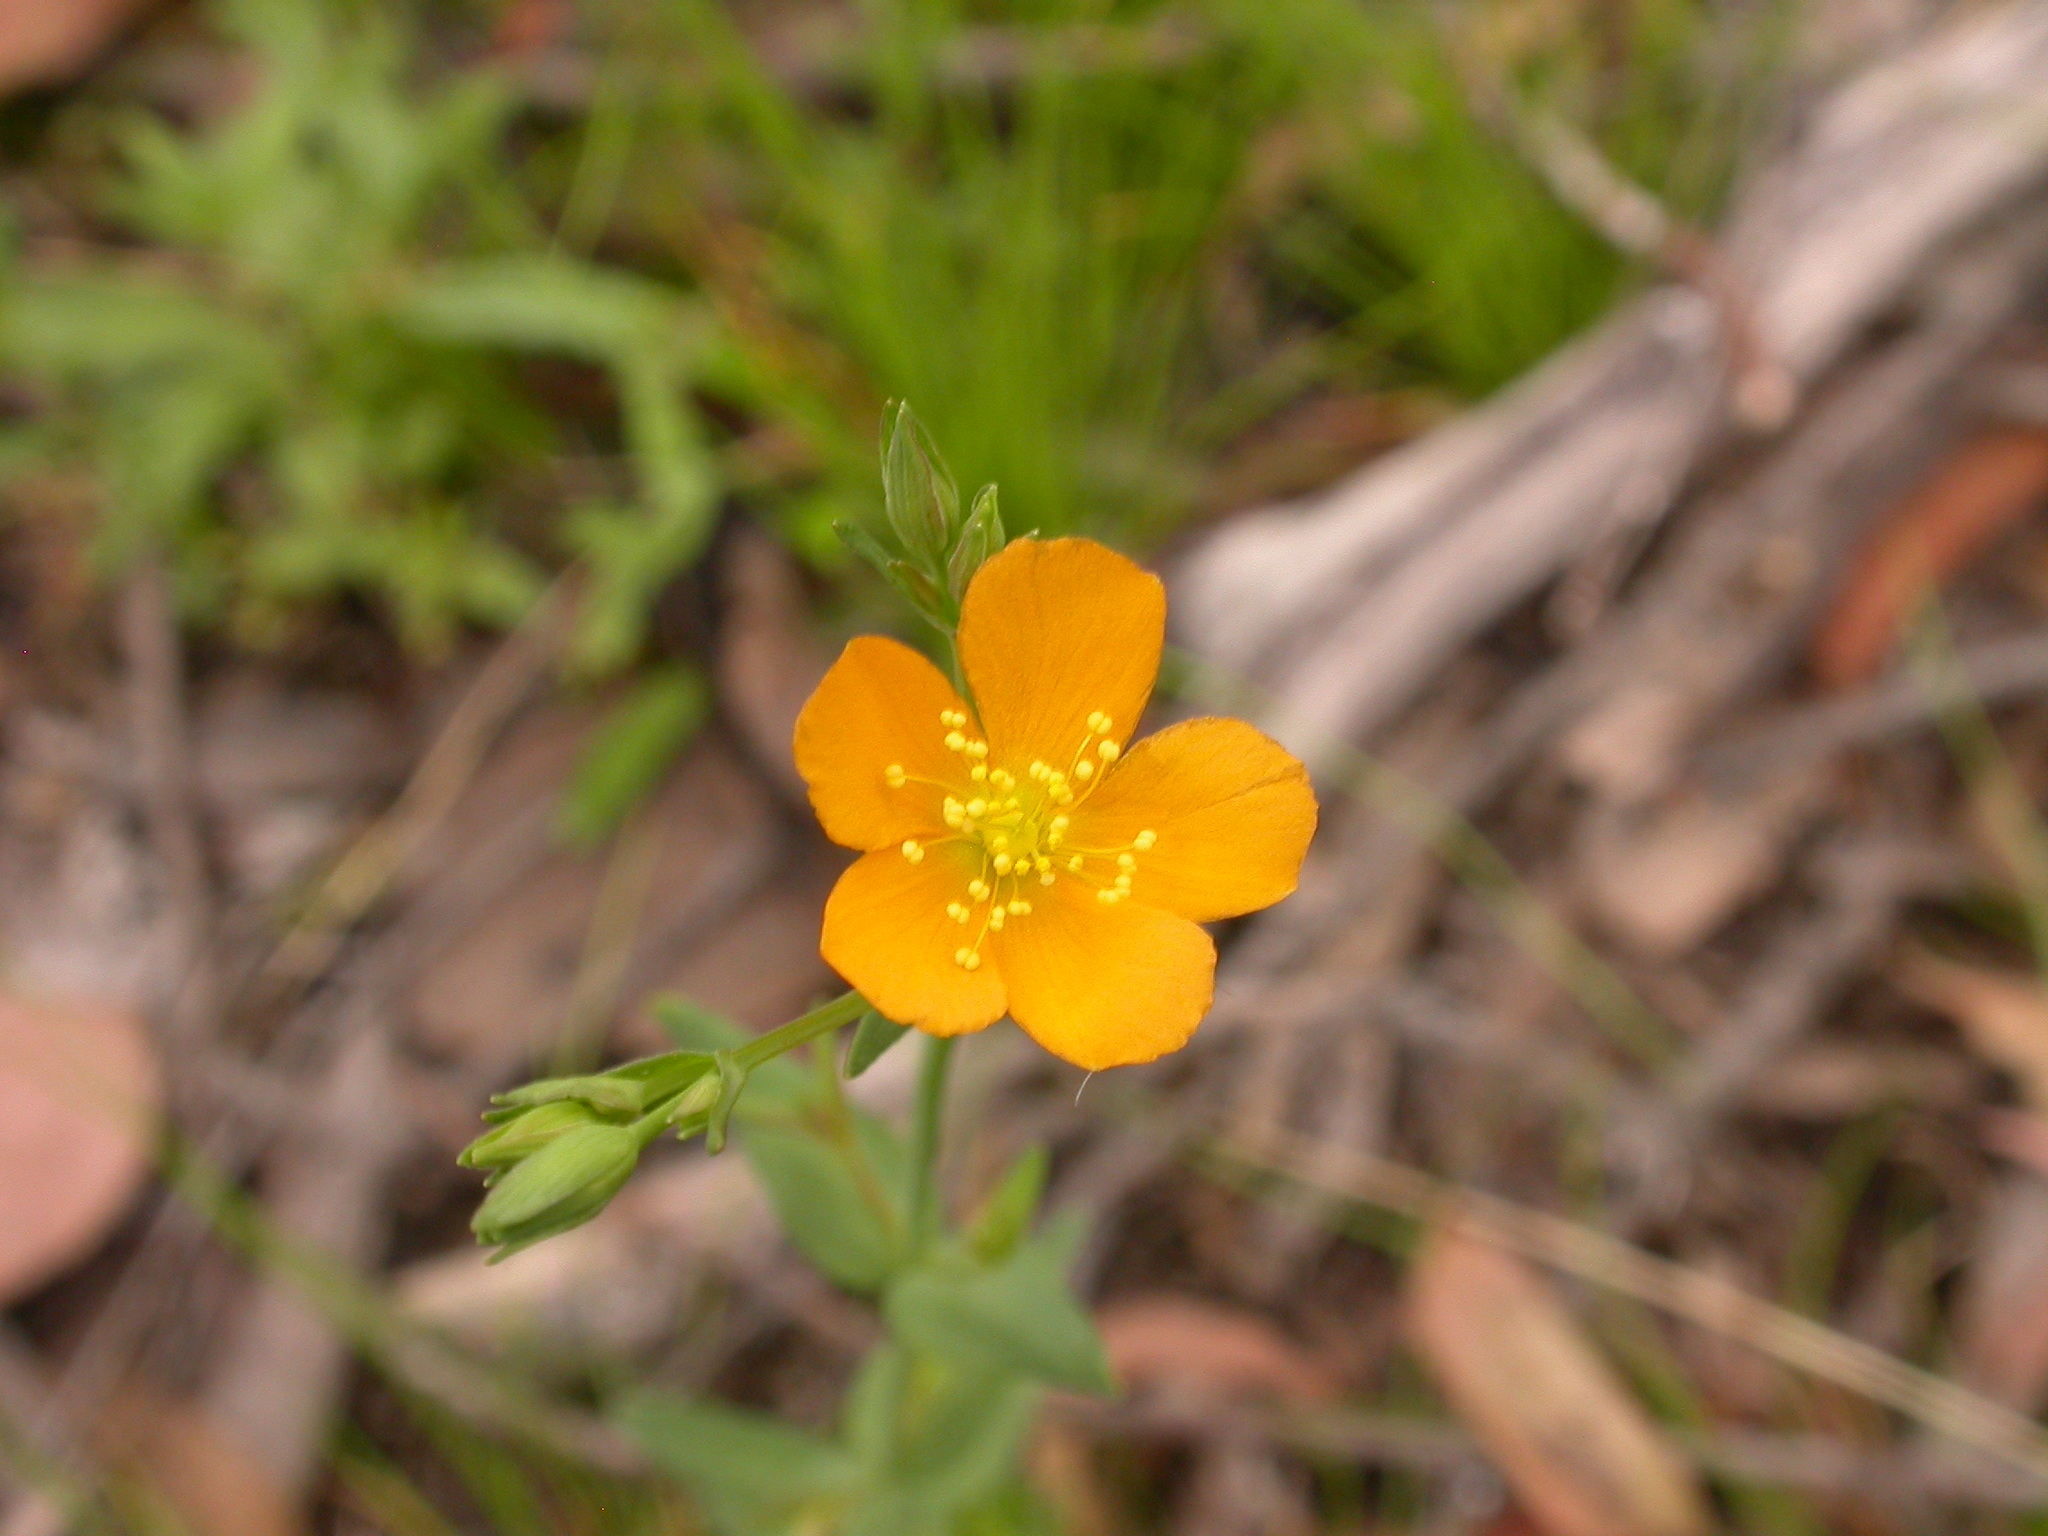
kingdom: Plantae
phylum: Tracheophyta
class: Magnoliopsida
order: Malpighiales
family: Hypericaceae
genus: Hypericum
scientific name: Hypericum gramineum
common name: Grassy st. johnswort
